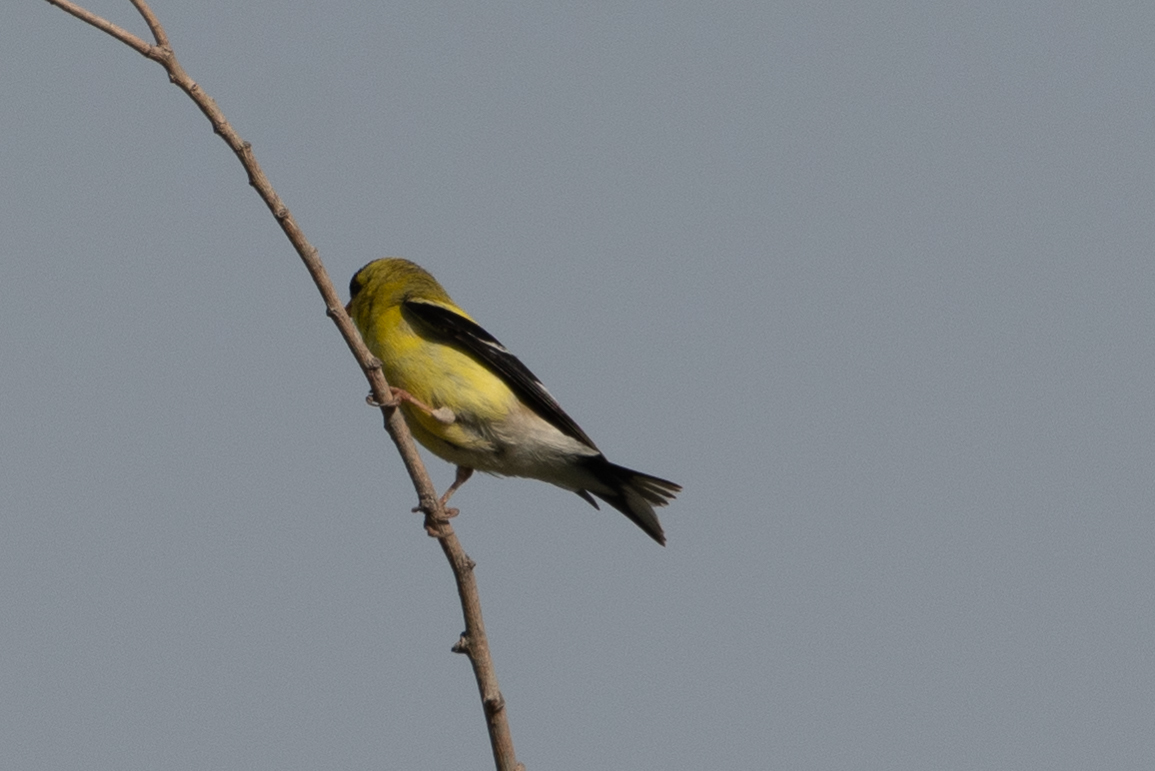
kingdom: Animalia
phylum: Chordata
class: Aves
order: Passeriformes
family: Fringillidae
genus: Spinus
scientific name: Spinus tristis
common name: American goldfinch
